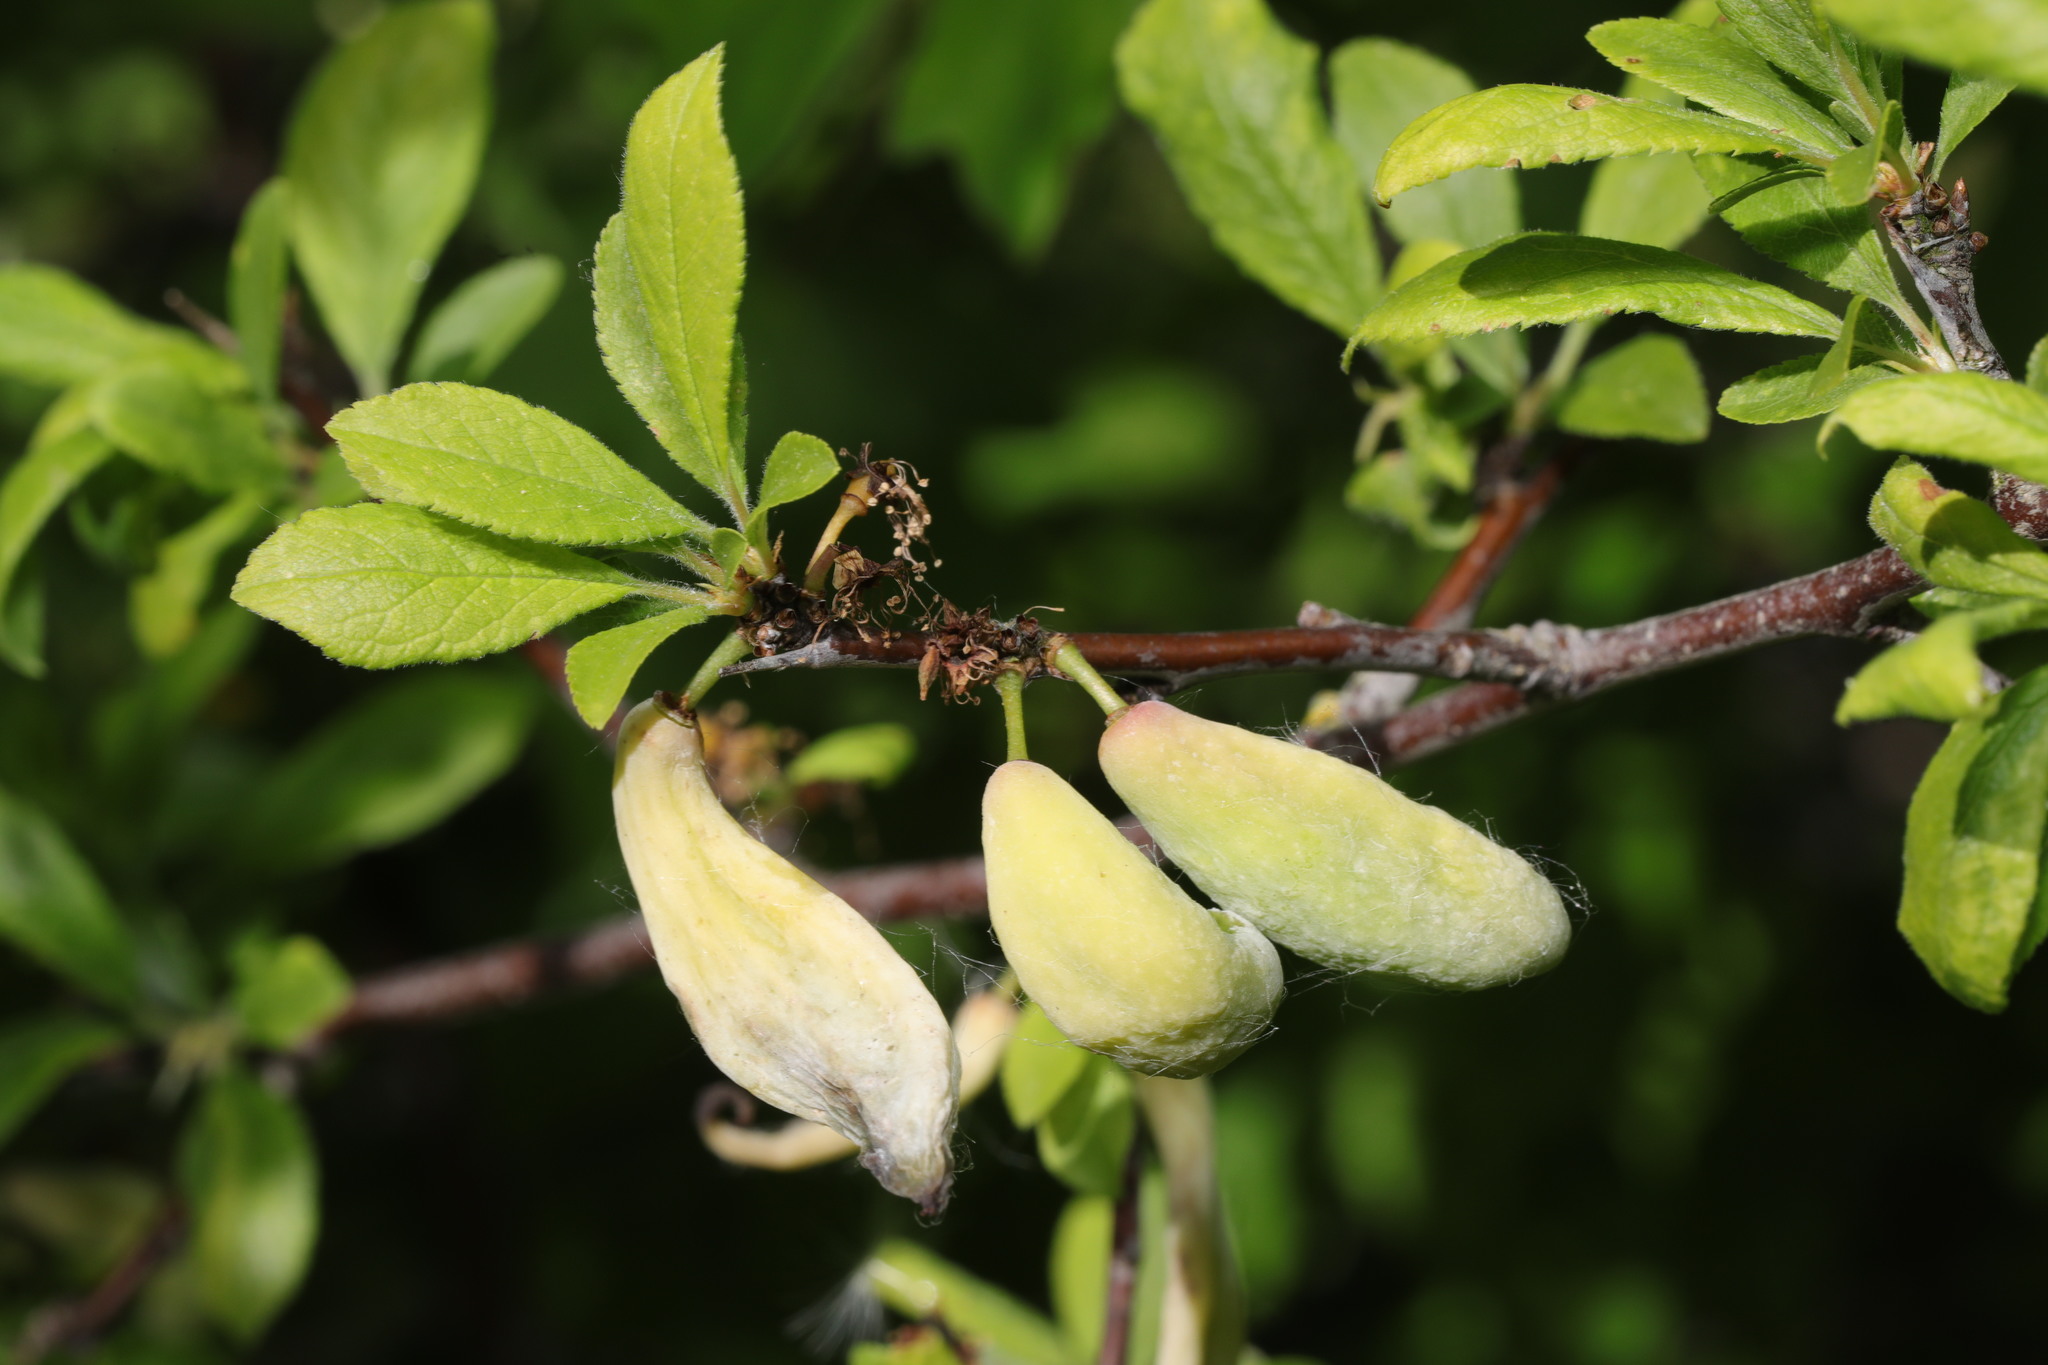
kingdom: Fungi
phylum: Ascomycota
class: Taphrinomycetes
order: Taphrinales
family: Taphrinaceae
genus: Taphrina
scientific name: Taphrina pruni
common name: Pocket plum
